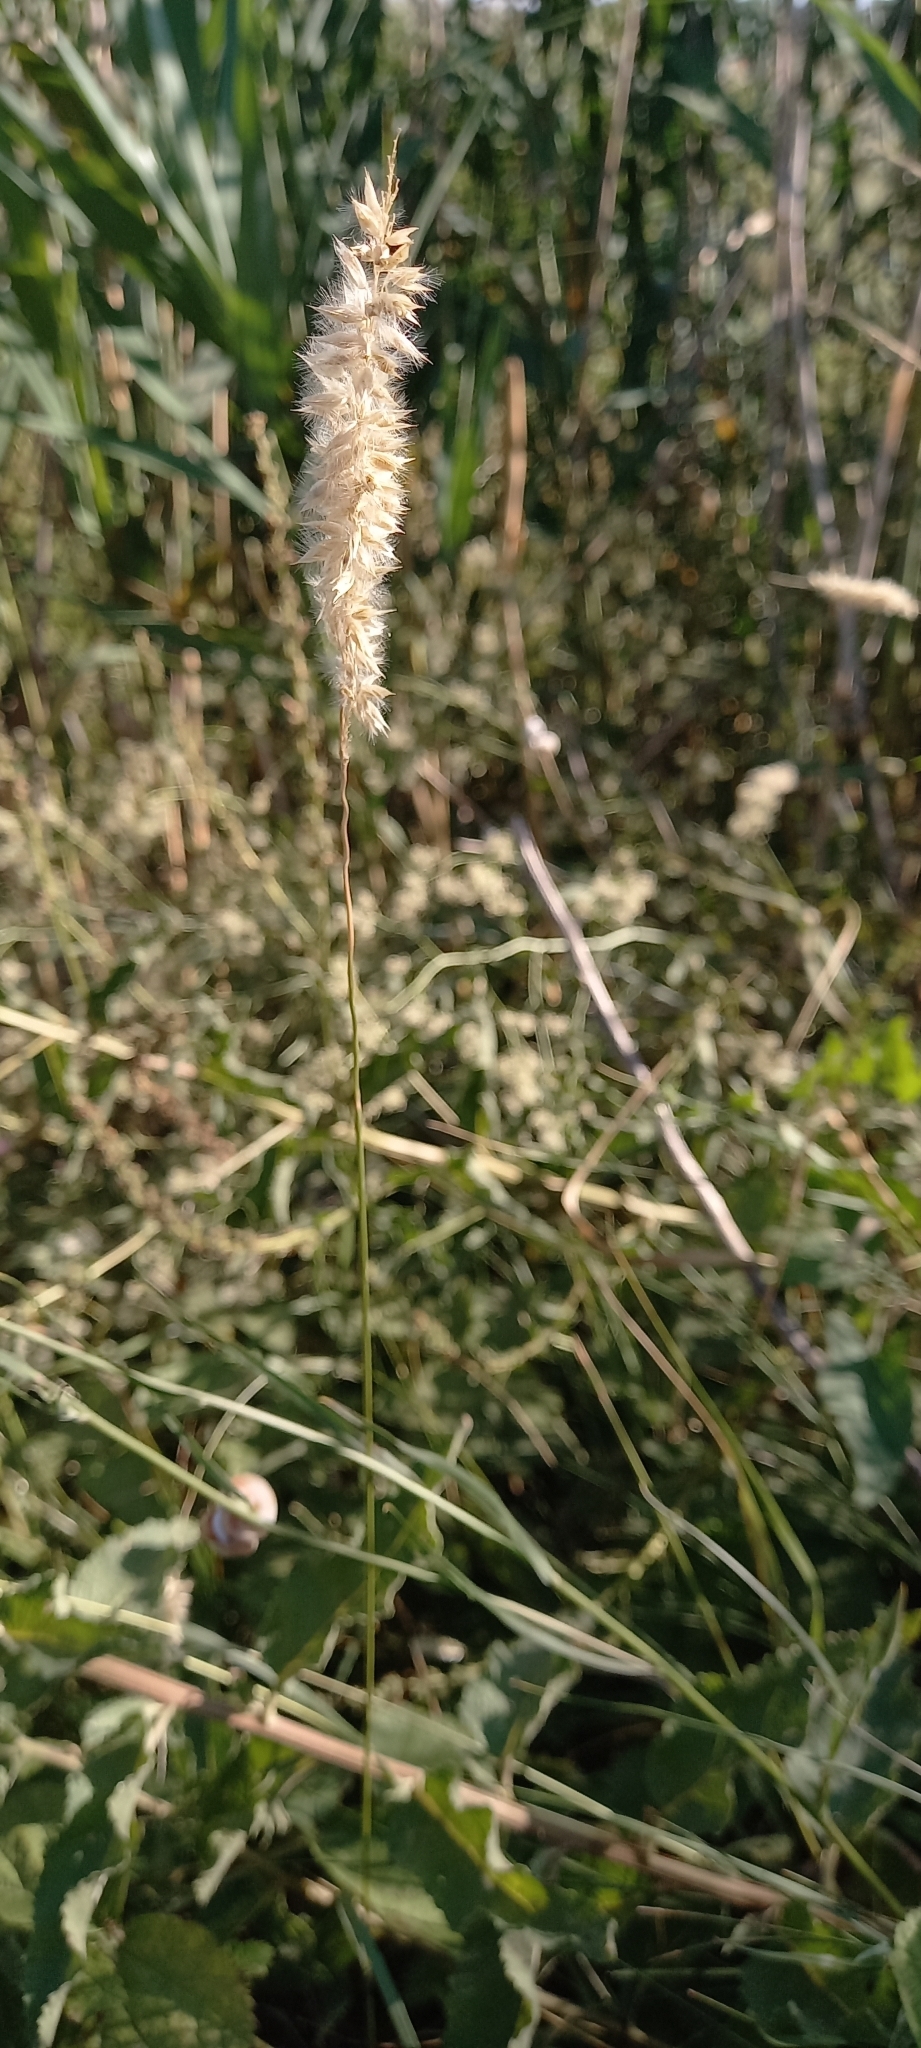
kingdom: Plantae
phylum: Tracheophyta
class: Liliopsida
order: Poales
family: Poaceae
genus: Melica
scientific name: Melica transsilvanica
